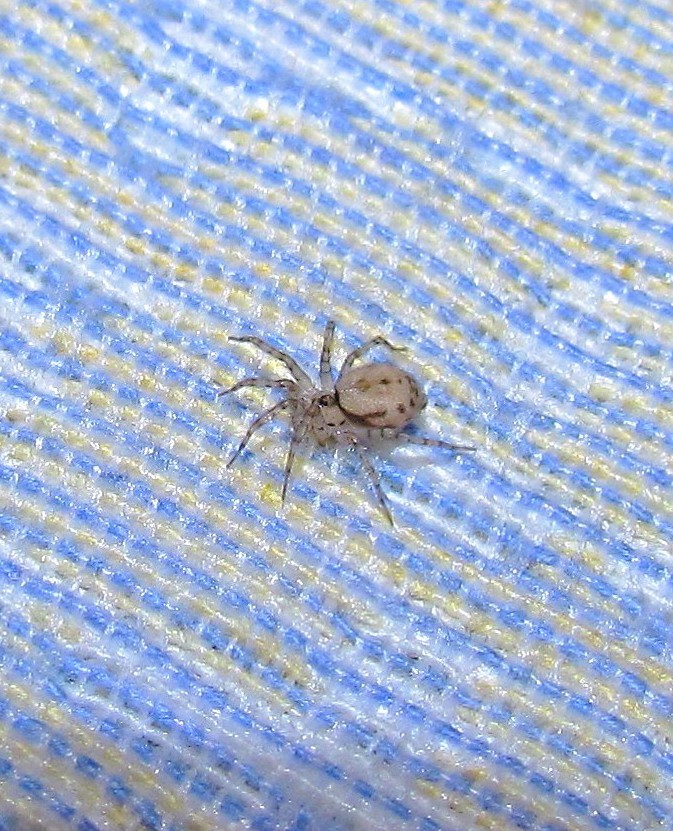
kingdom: Animalia
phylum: Arthropoda
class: Arachnida
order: Araneae
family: Oecobiidae
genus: Oecobius
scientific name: Oecobius navus
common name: Flatmesh weaver
